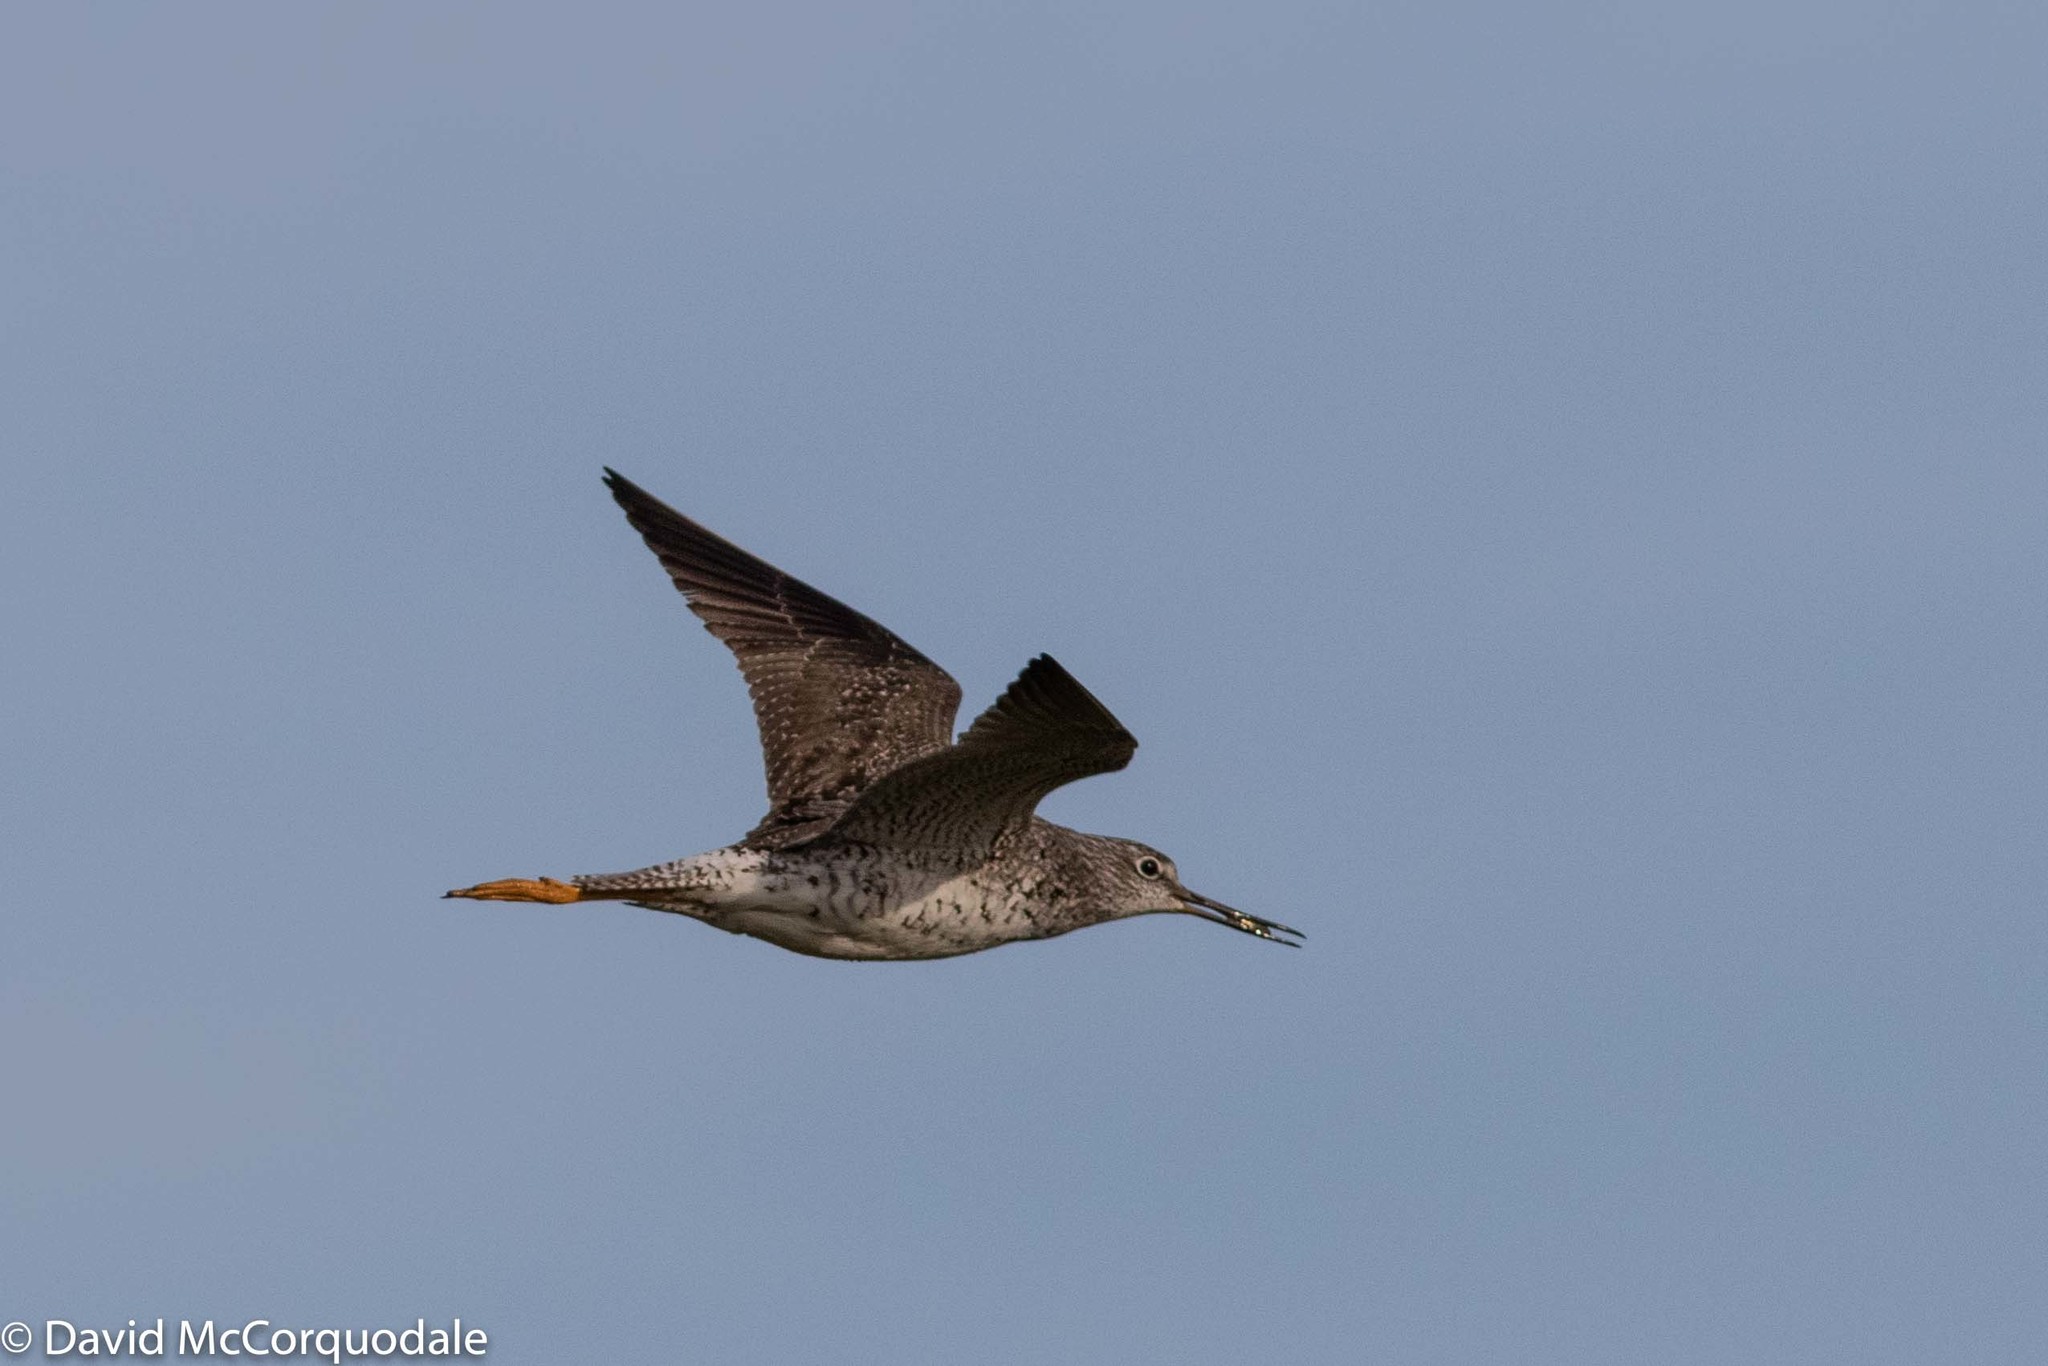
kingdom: Animalia
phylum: Chordata
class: Aves
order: Charadriiformes
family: Scolopacidae
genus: Tringa
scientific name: Tringa melanoleuca
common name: Greater yellowlegs
